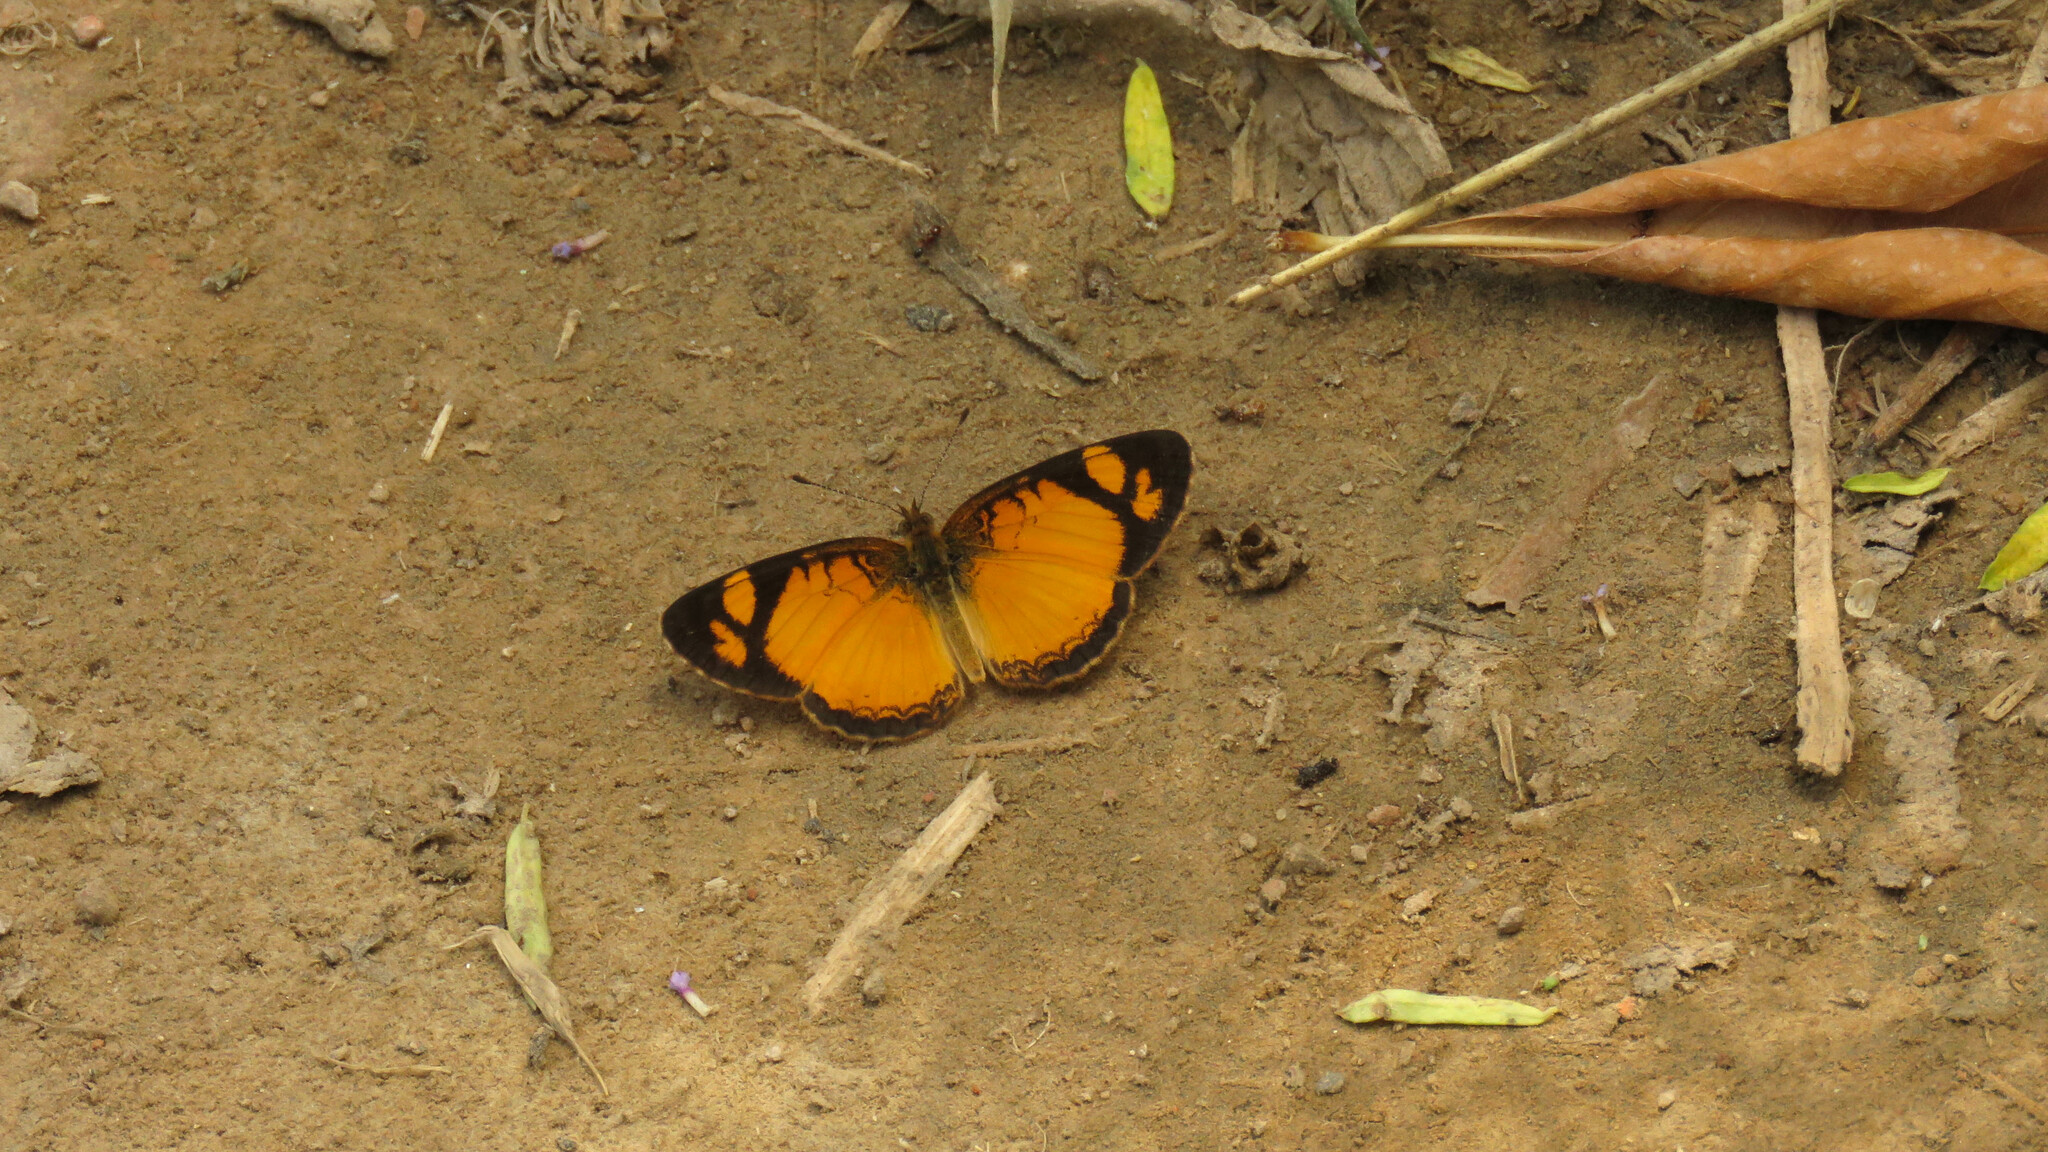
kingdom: Animalia
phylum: Arthropoda
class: Insecta
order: Lepidoptera
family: Nymphalidae
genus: Tegosa
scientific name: Tegosa claudina
